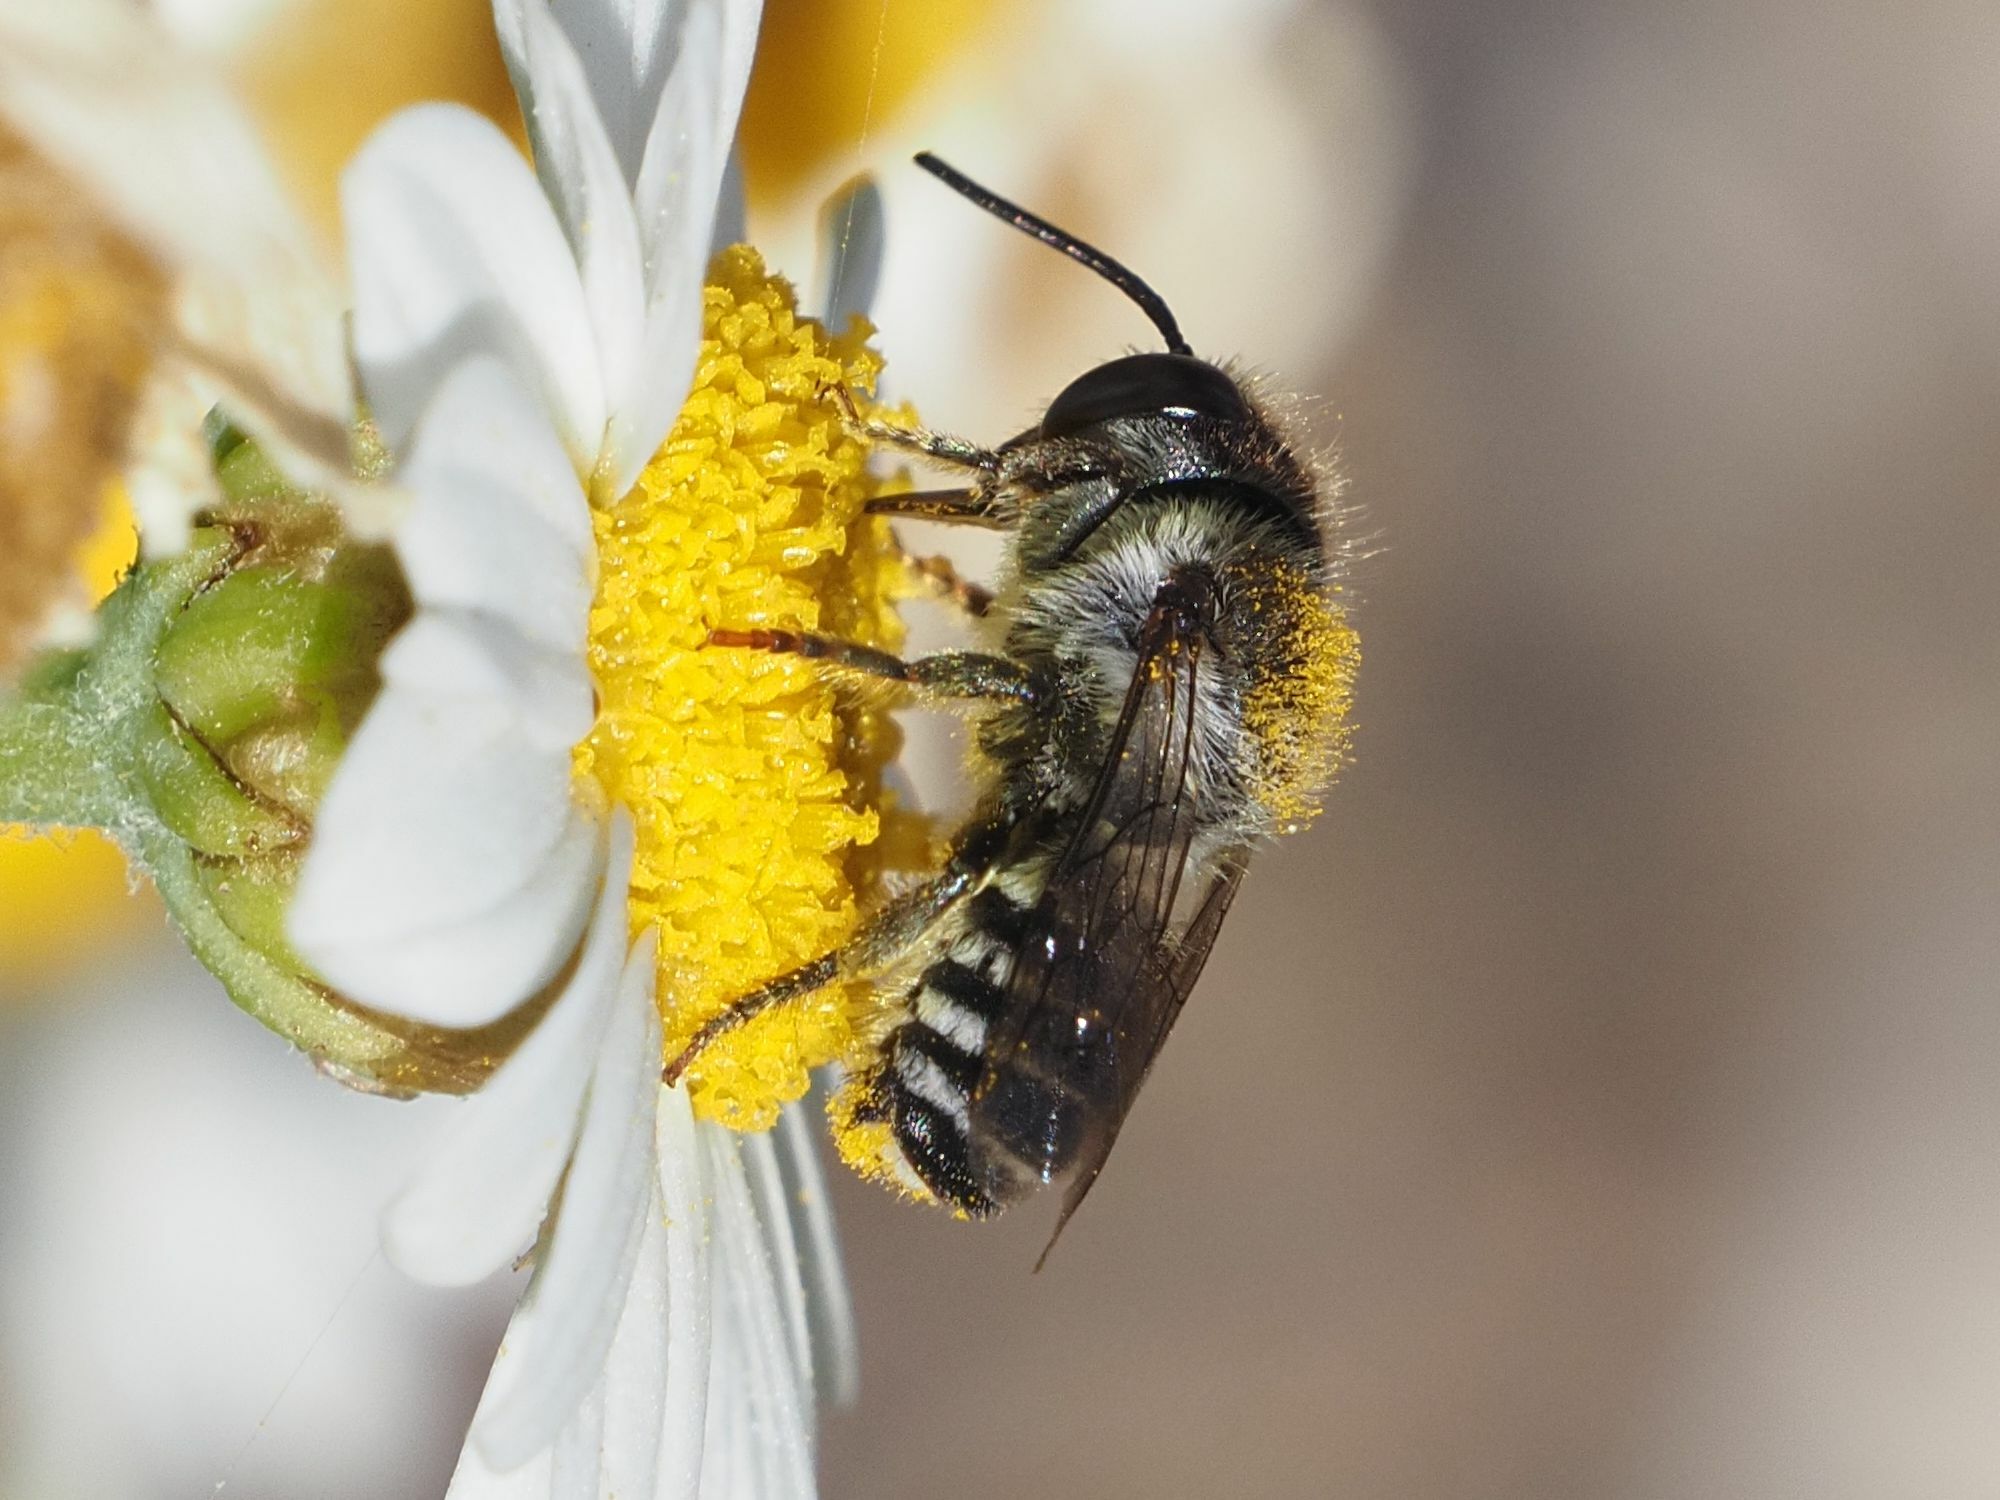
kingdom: Animalia
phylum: Arthropoda
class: Insecta
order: Hymenoptera
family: Megachilidae
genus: Megachile
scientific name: Megachile canariensis
